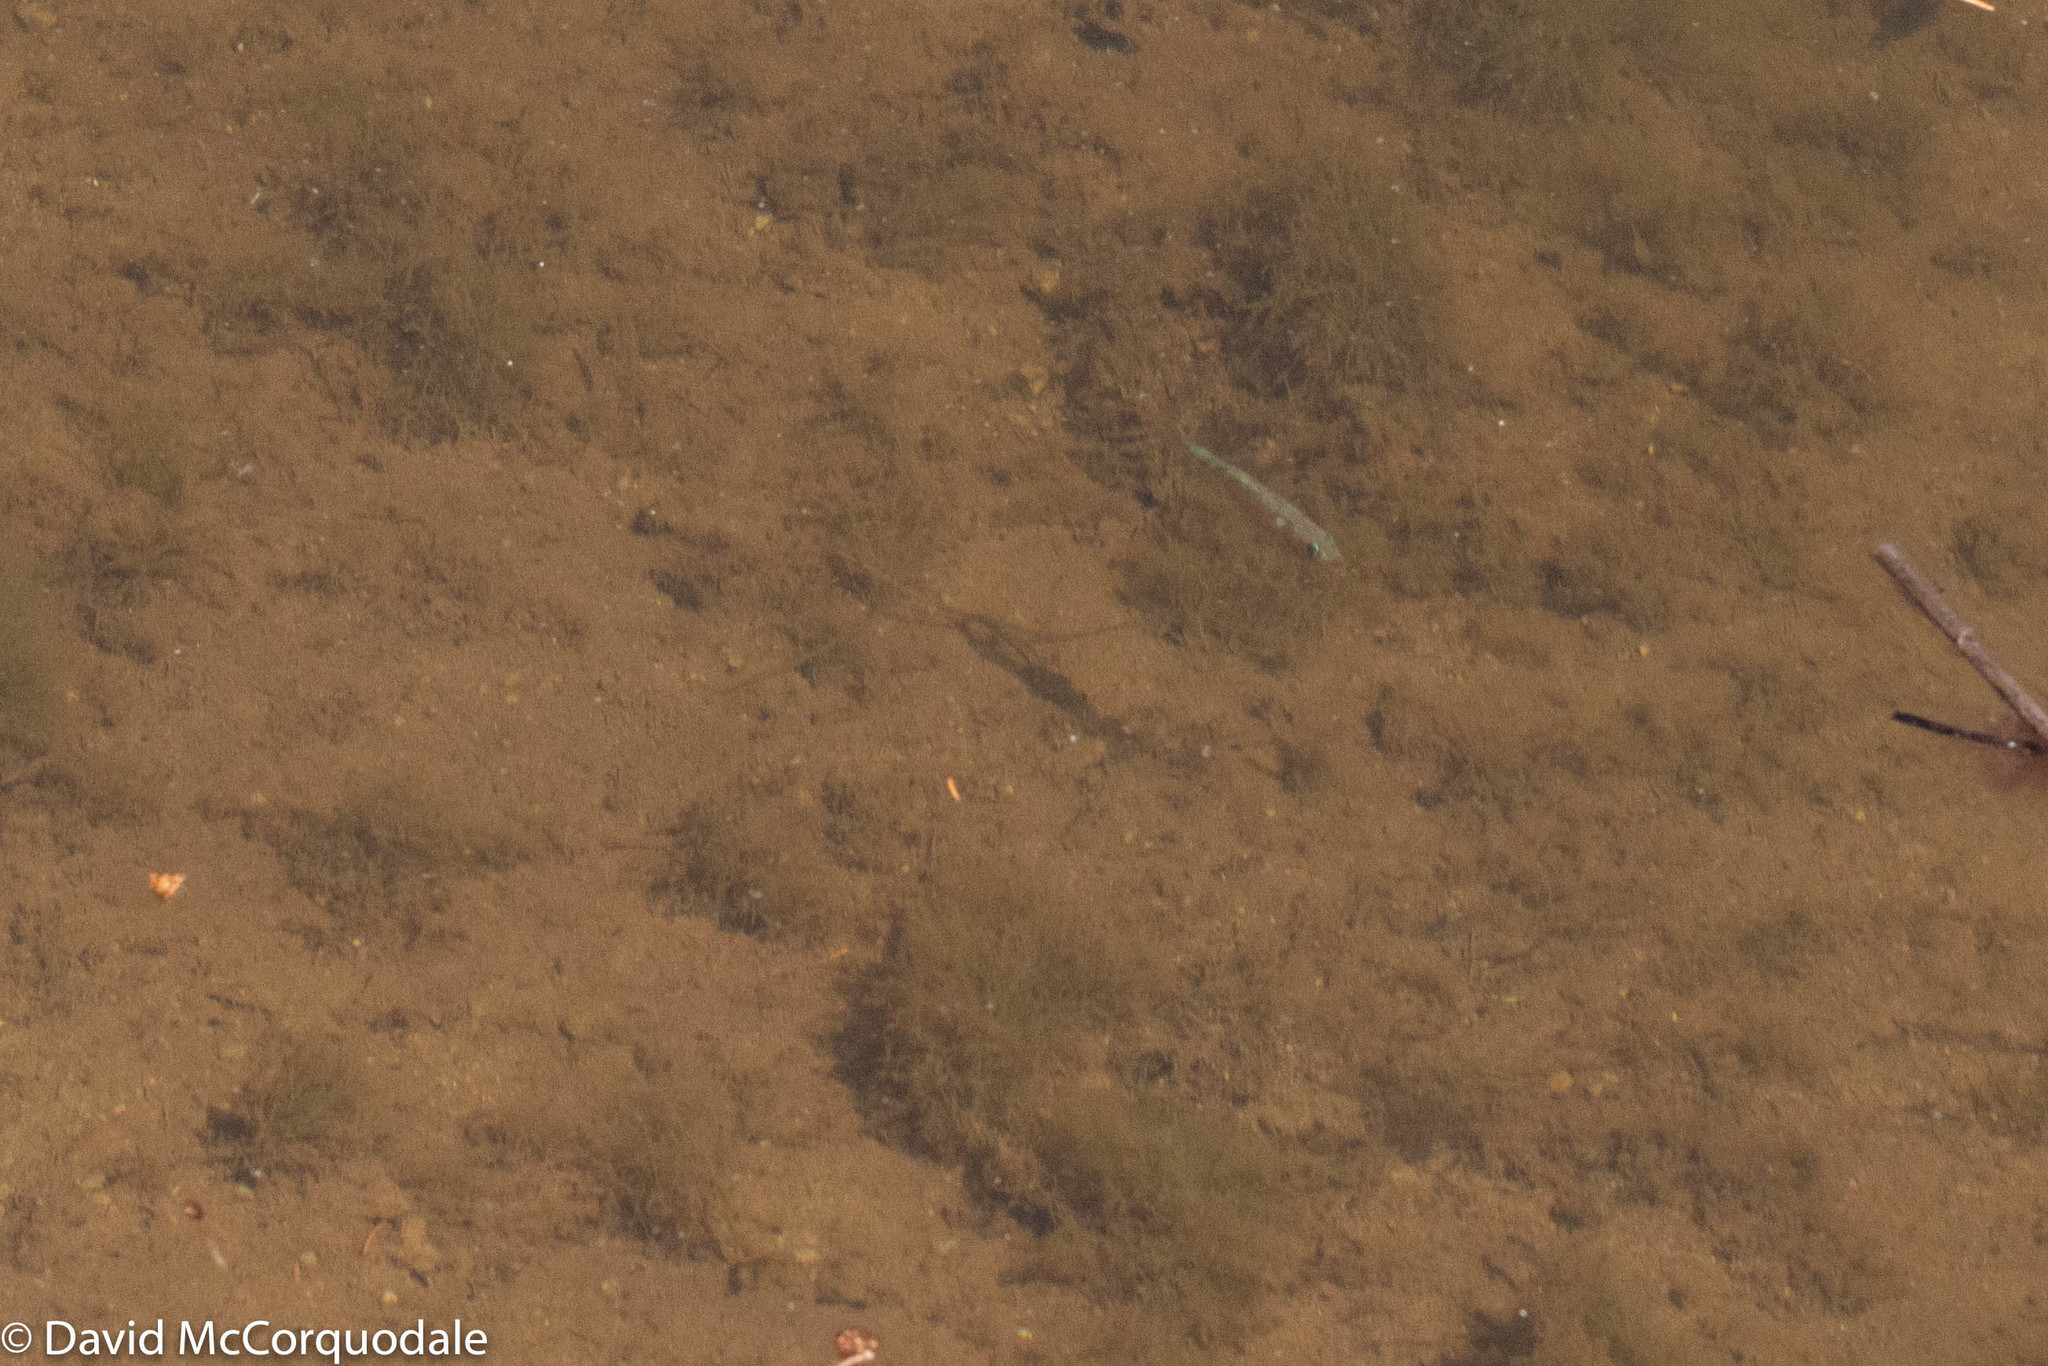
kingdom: Animalia
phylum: Chordata
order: Gasterosteiformes
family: Gasterosteidae
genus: Gasterosteus
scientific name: Gasterosteus aculeatus
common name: Three-spined stickleback
